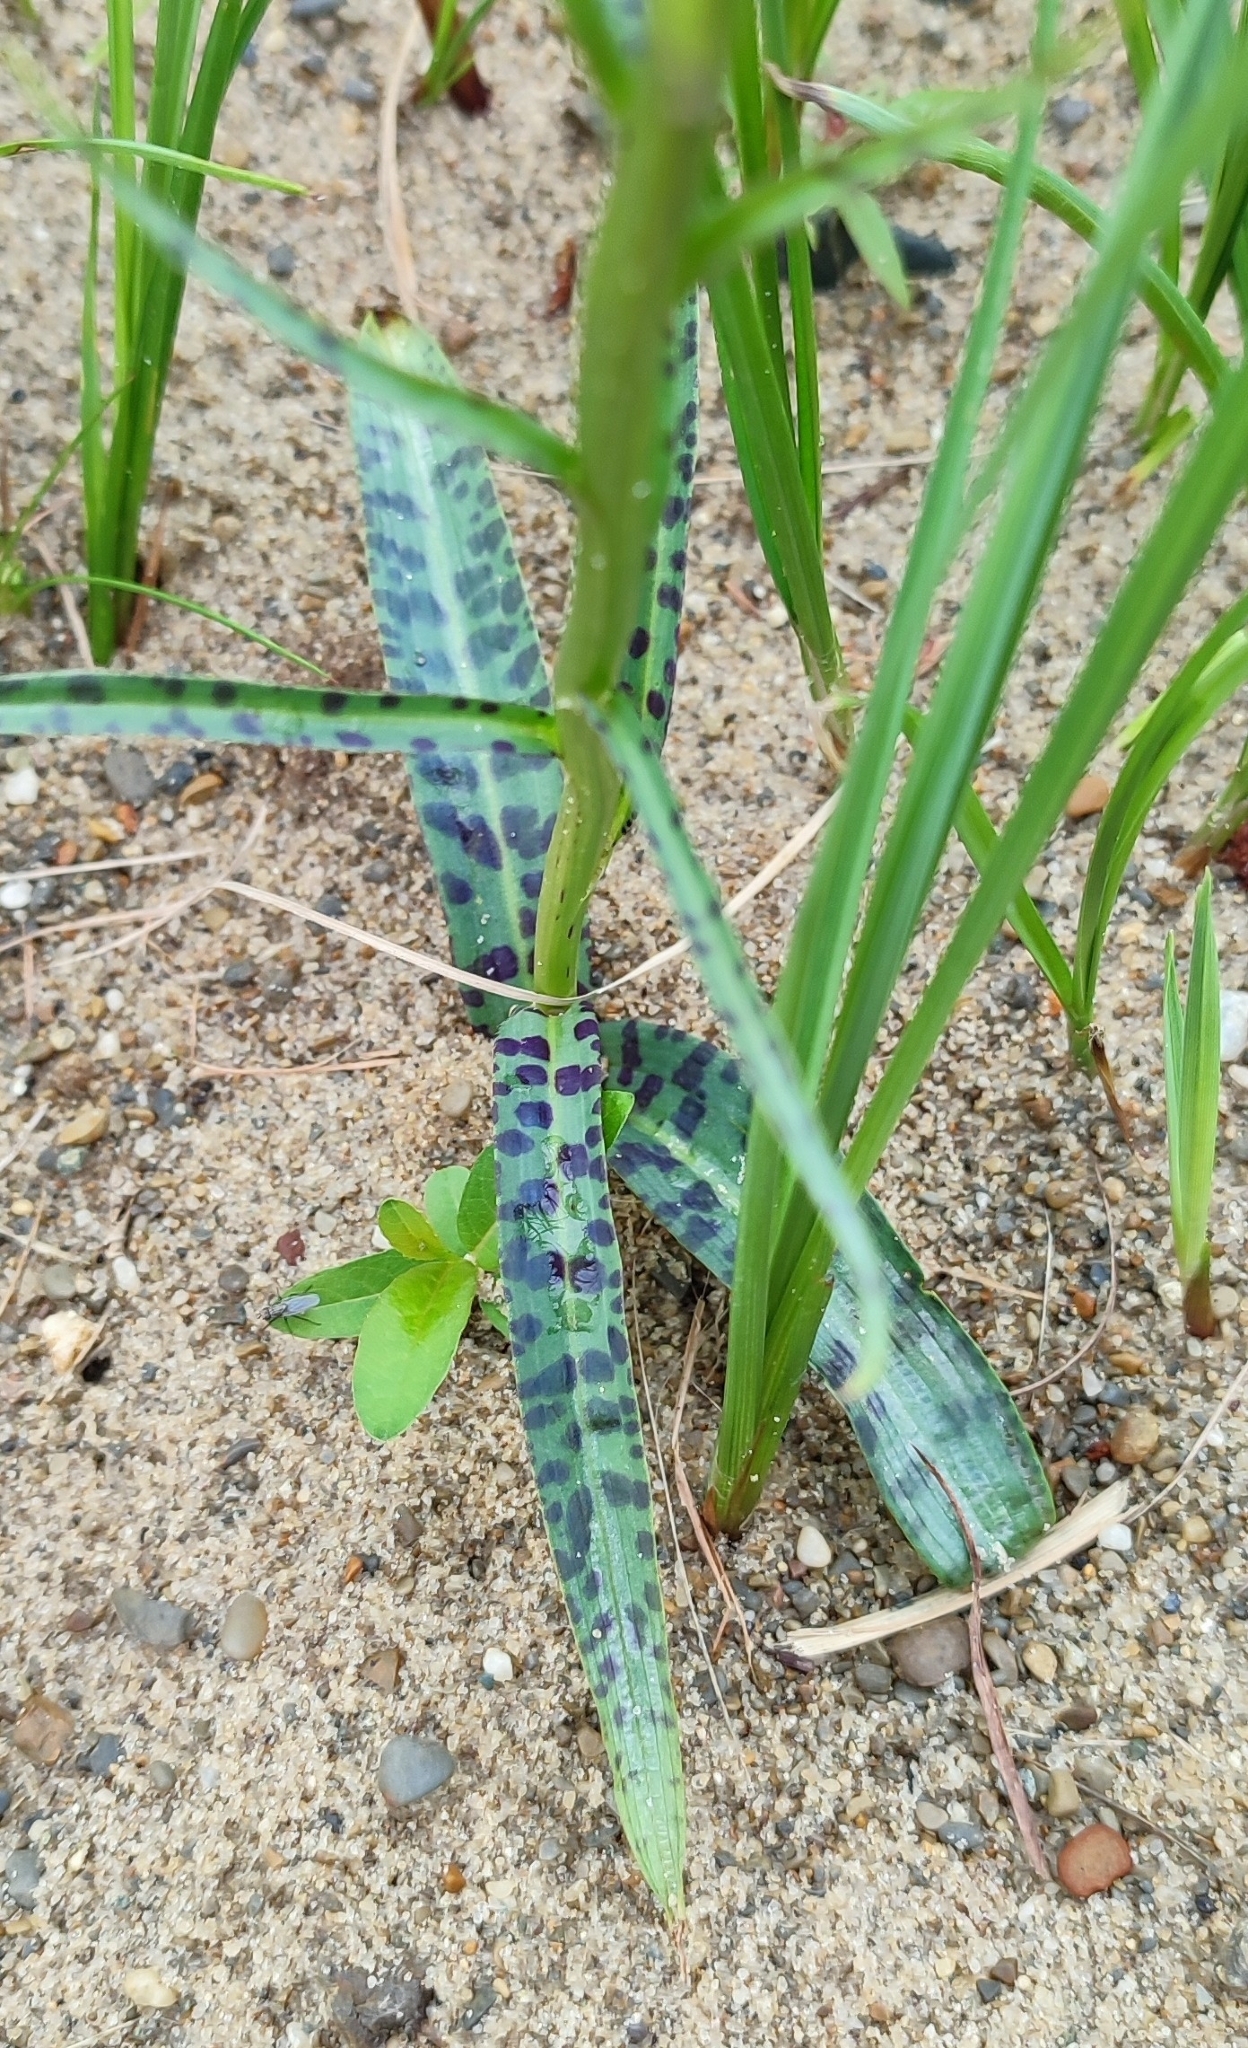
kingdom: Plantae
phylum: Tracheophyta
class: Liliopsida
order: Asparagales
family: Orchidaceae
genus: Dactylorhiza
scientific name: Dactylorhiza maculata
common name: Heath spotted-orchid
